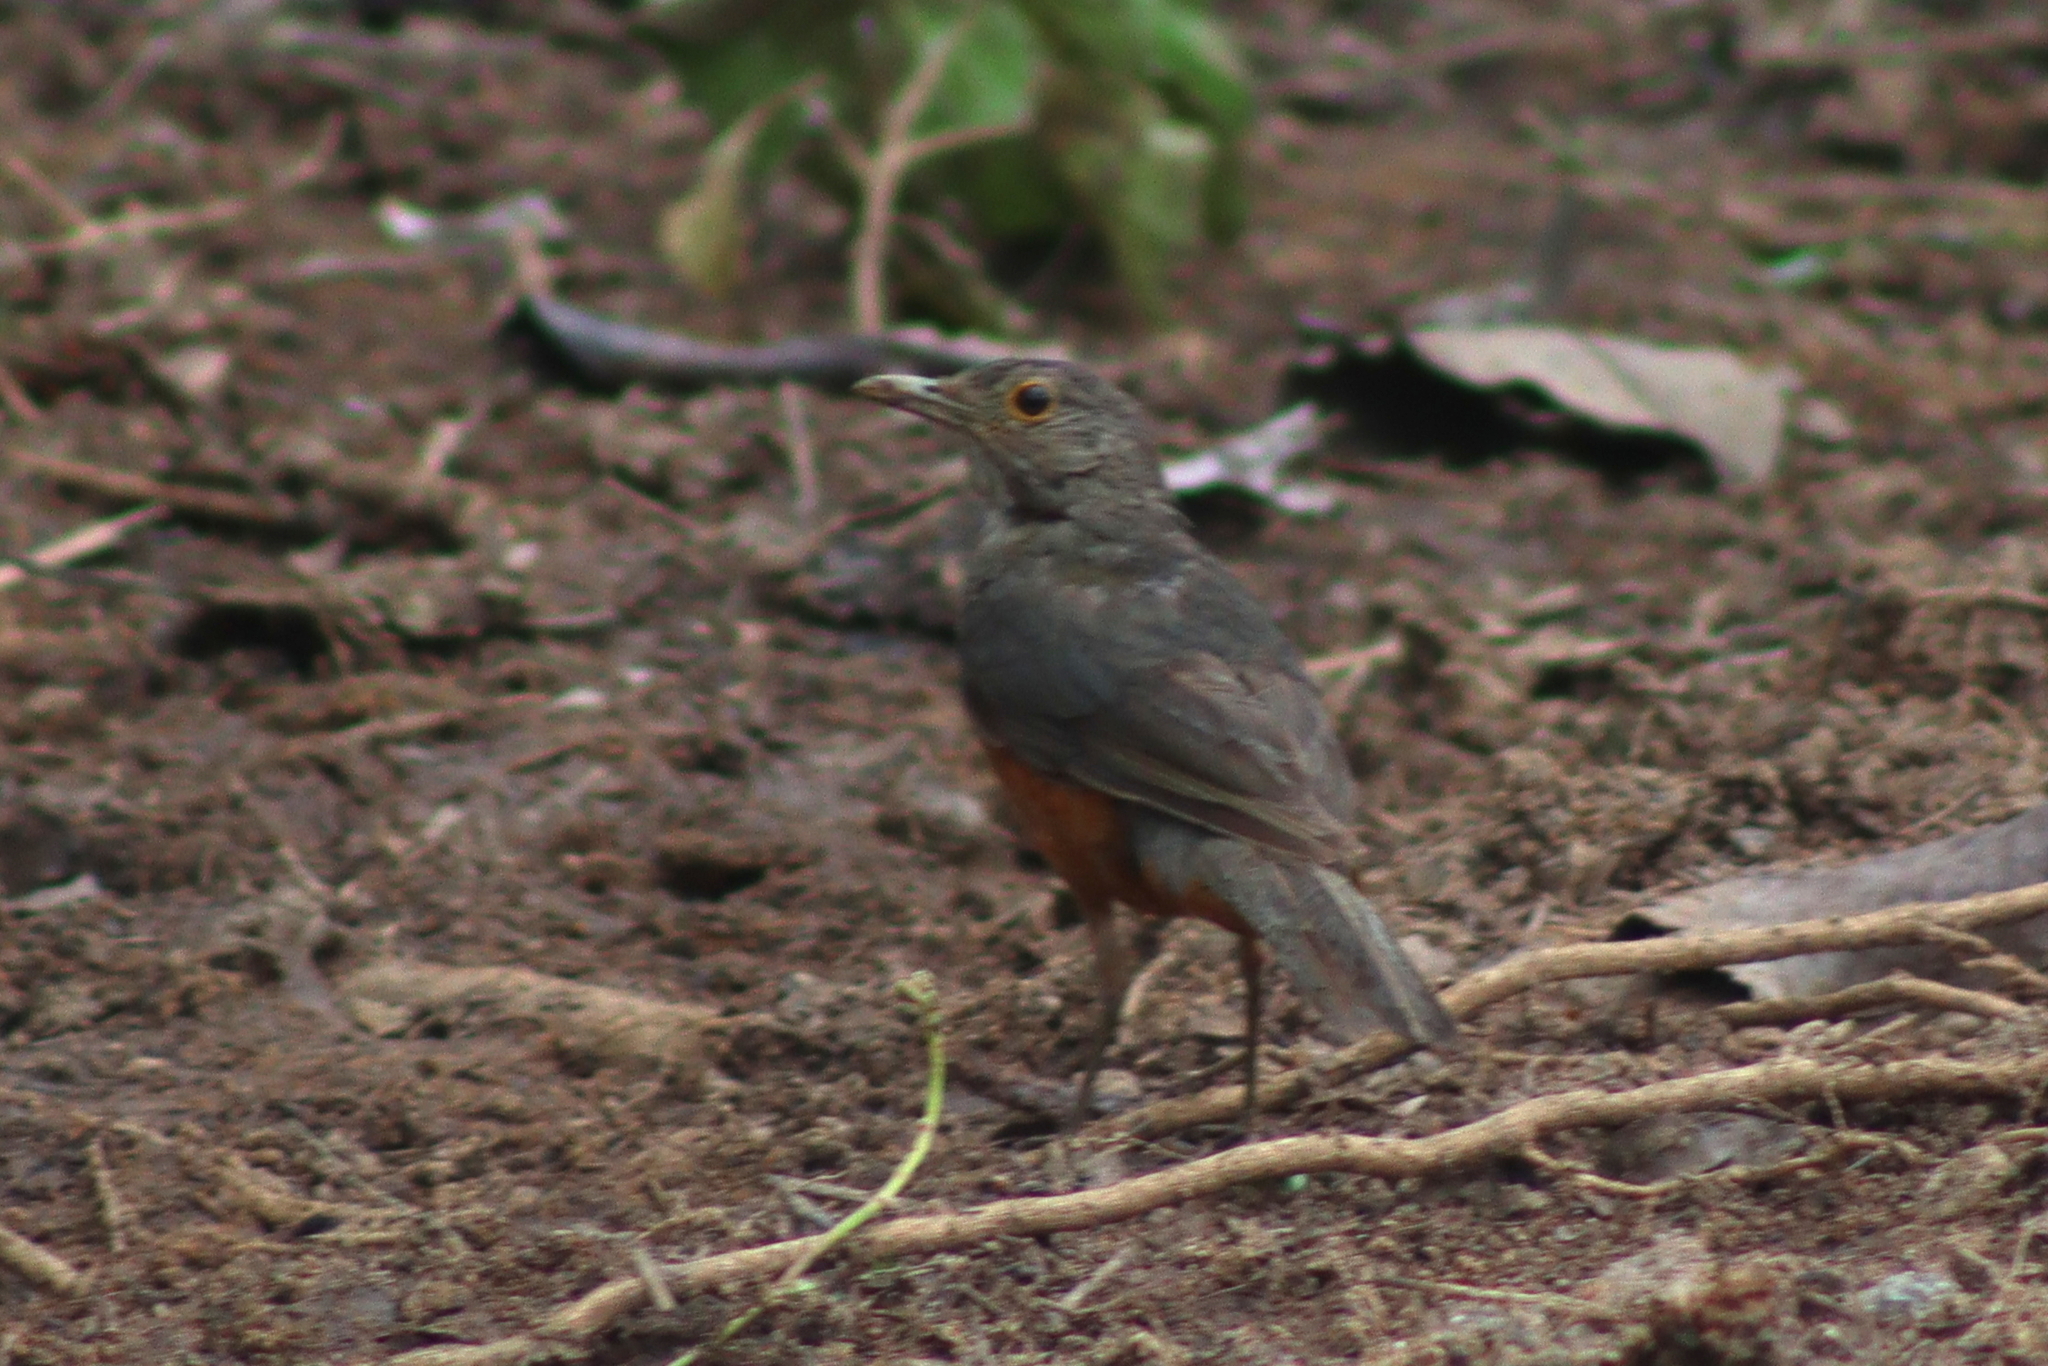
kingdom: Animalia
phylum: Chordata
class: Aves
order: Passeriformes
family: Turdidae
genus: Turdus
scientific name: Turdus rufiventris
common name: Rufous-bellied thrush
